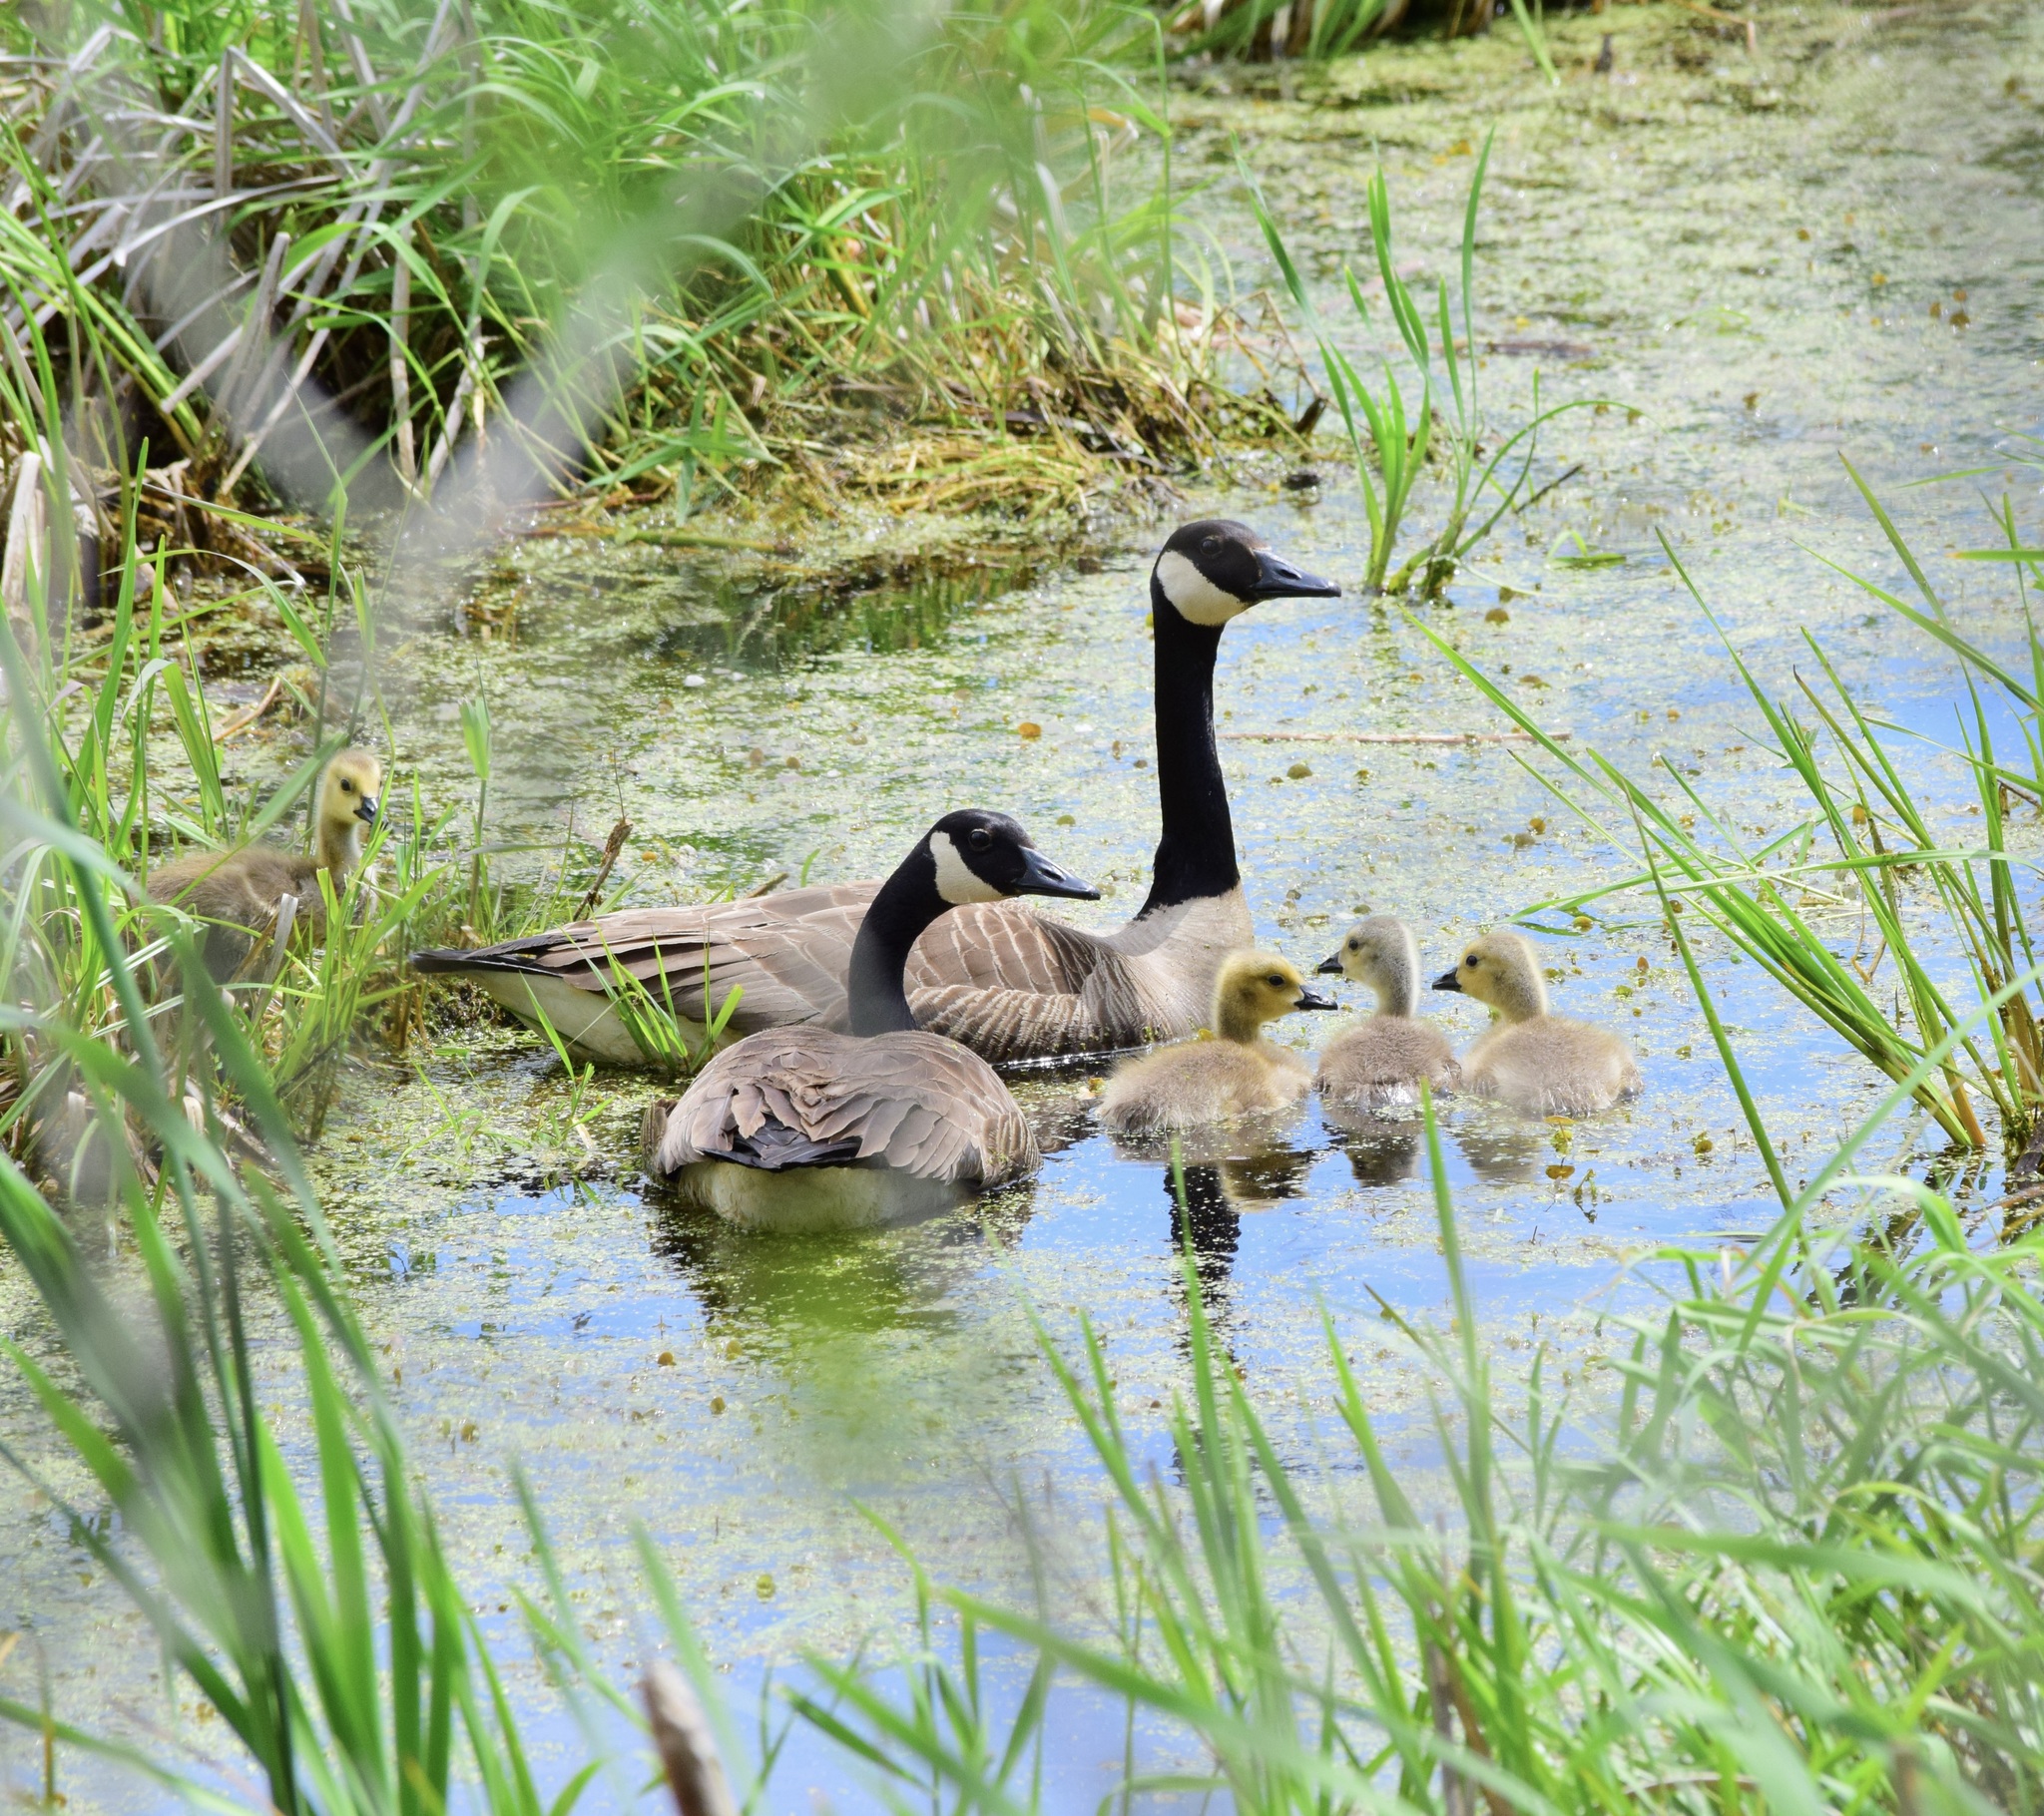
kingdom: Animalia
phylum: Chordata
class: Aves
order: Anseriformes
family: Anatidae
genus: Branta
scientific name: Branta canadensis
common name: Canada goose
